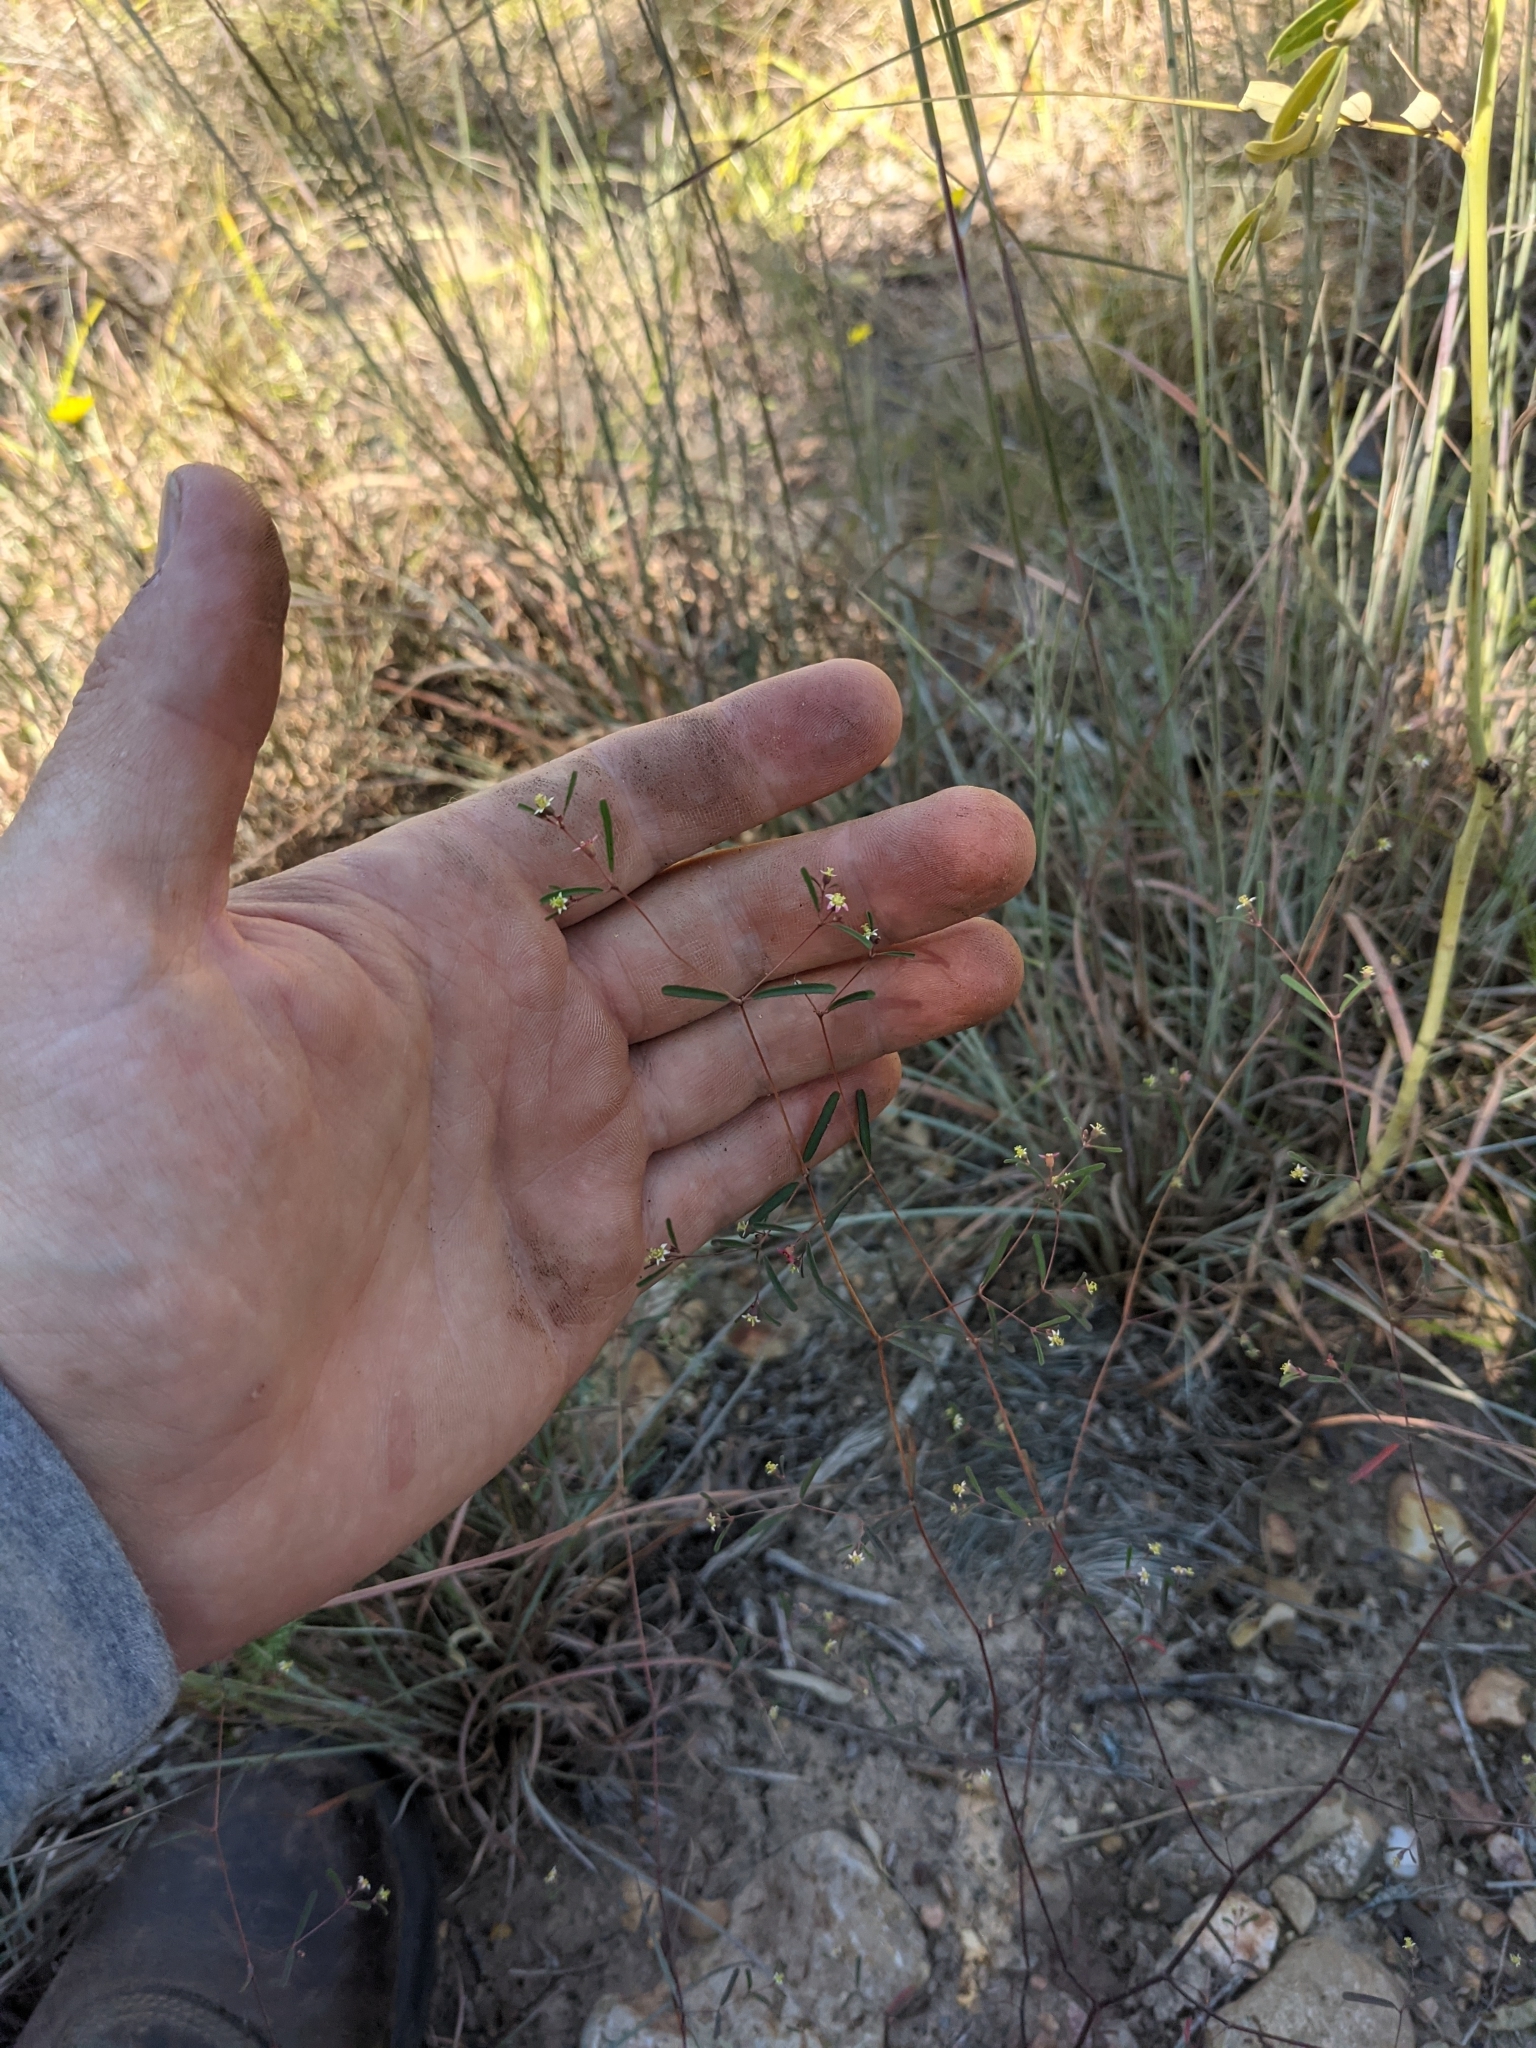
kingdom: Plantae
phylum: Tracheophyta
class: Magnoliopsida
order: Malpighiales
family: Euphorbiaceae
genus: Euphorbia
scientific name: Euphorbia missurica
